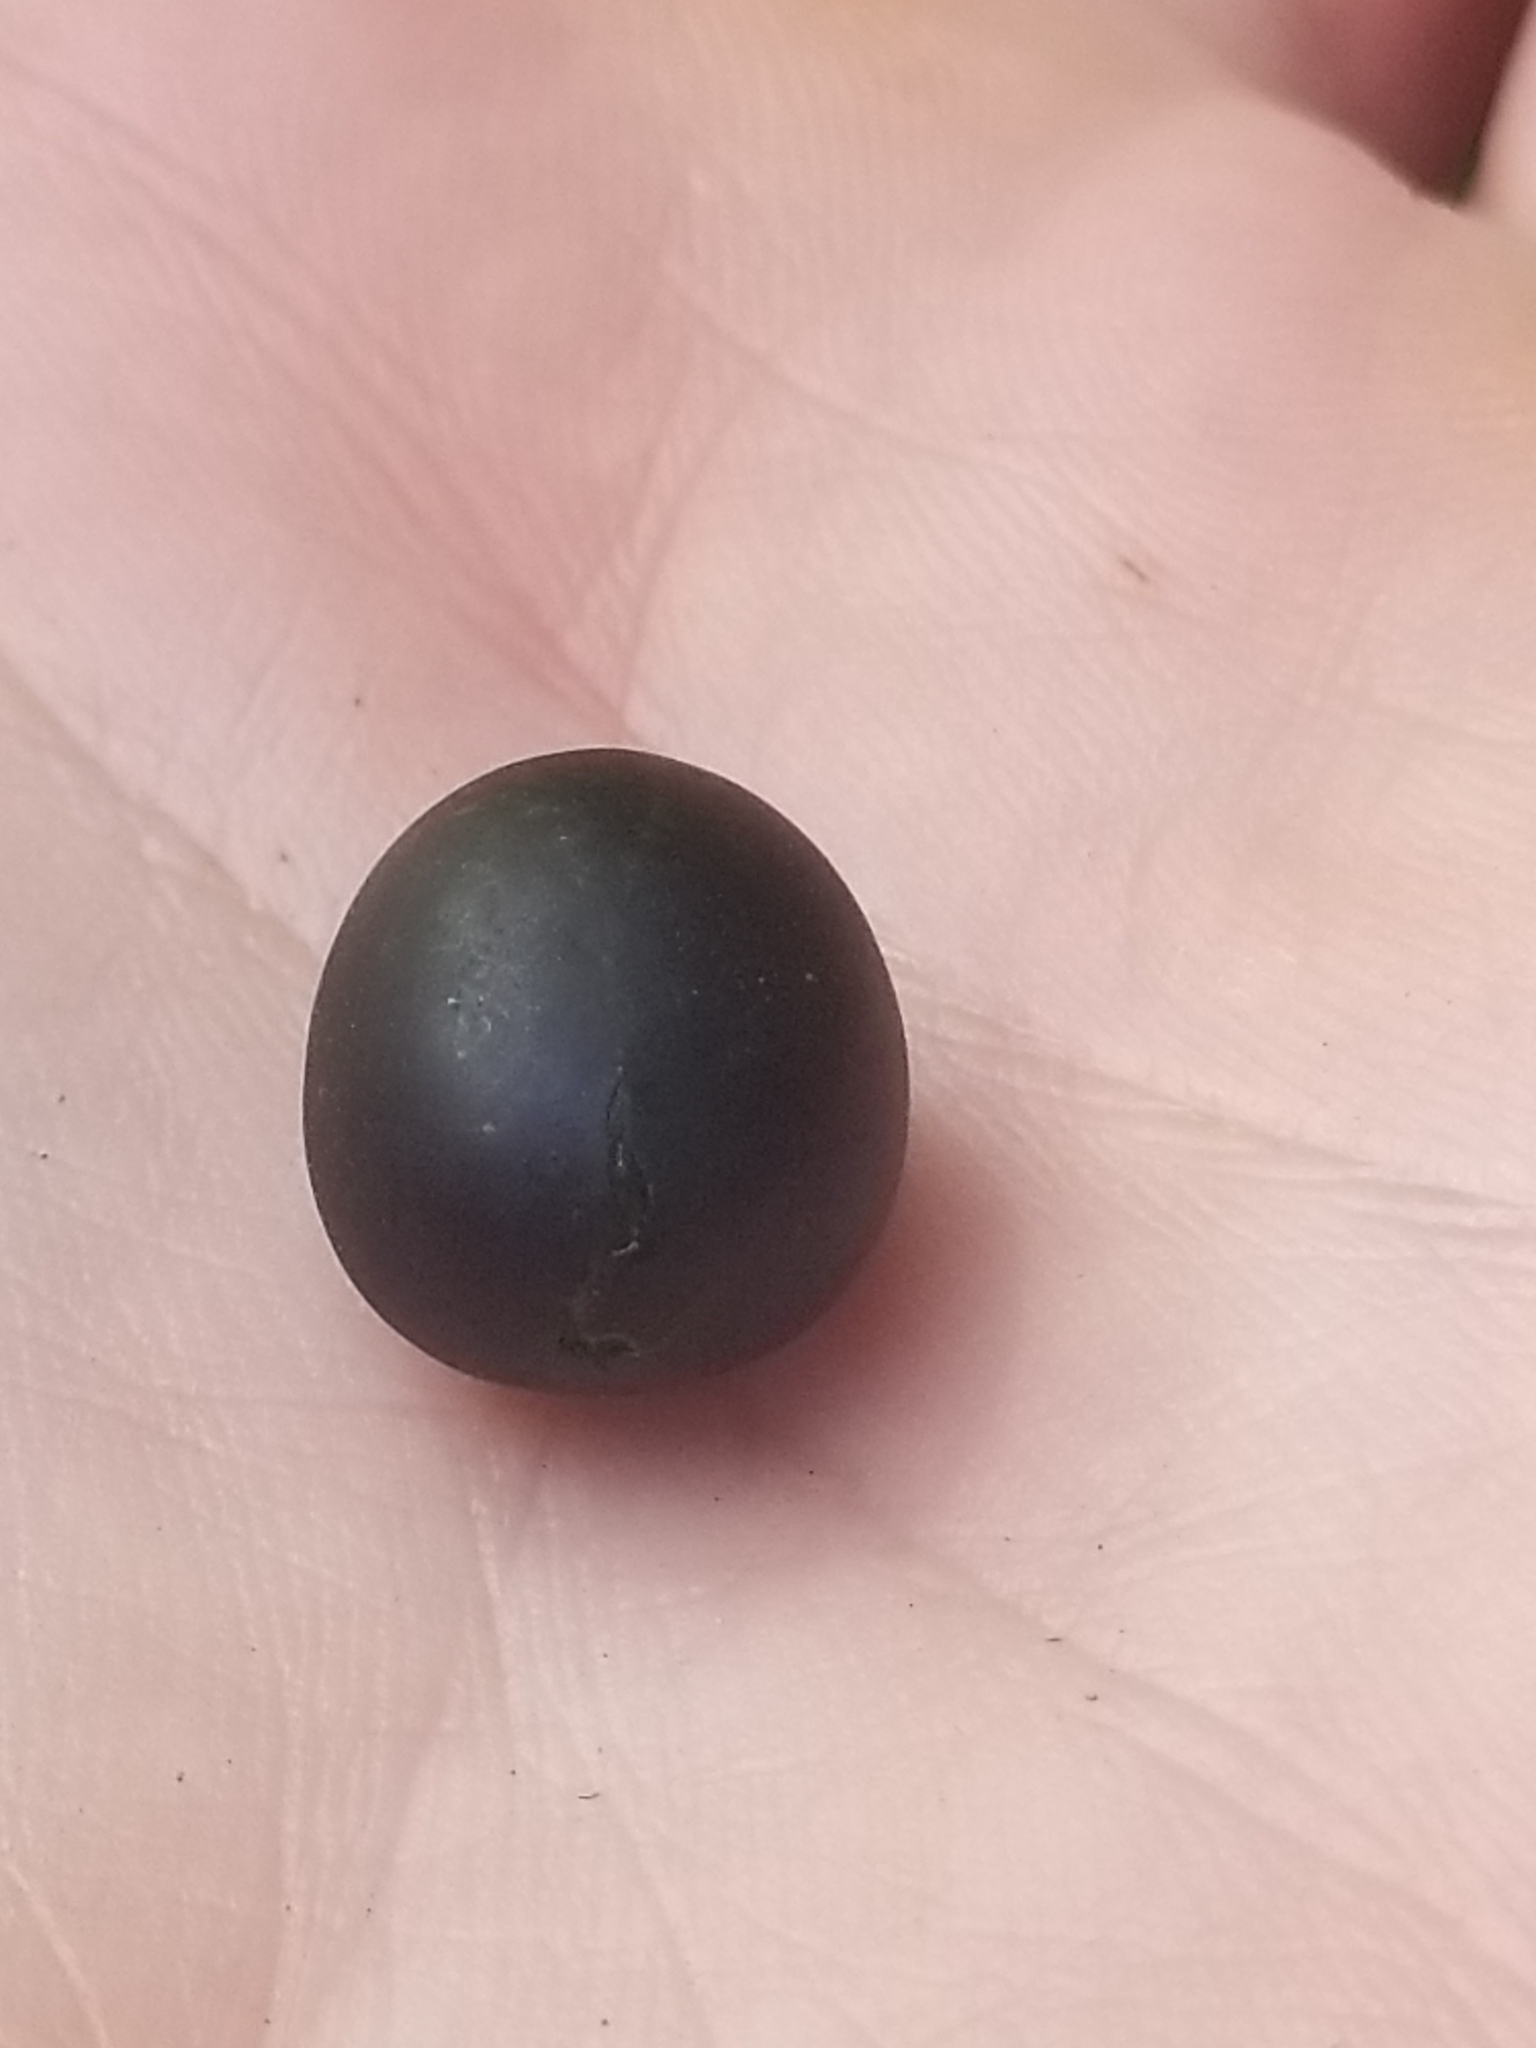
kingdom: Plantae
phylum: Tracheophyta
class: Magnoliopsida
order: Cucurbitales
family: Cucurbitaceae
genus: Melothria
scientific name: Melothria pendula
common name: Creeping-cucumber
